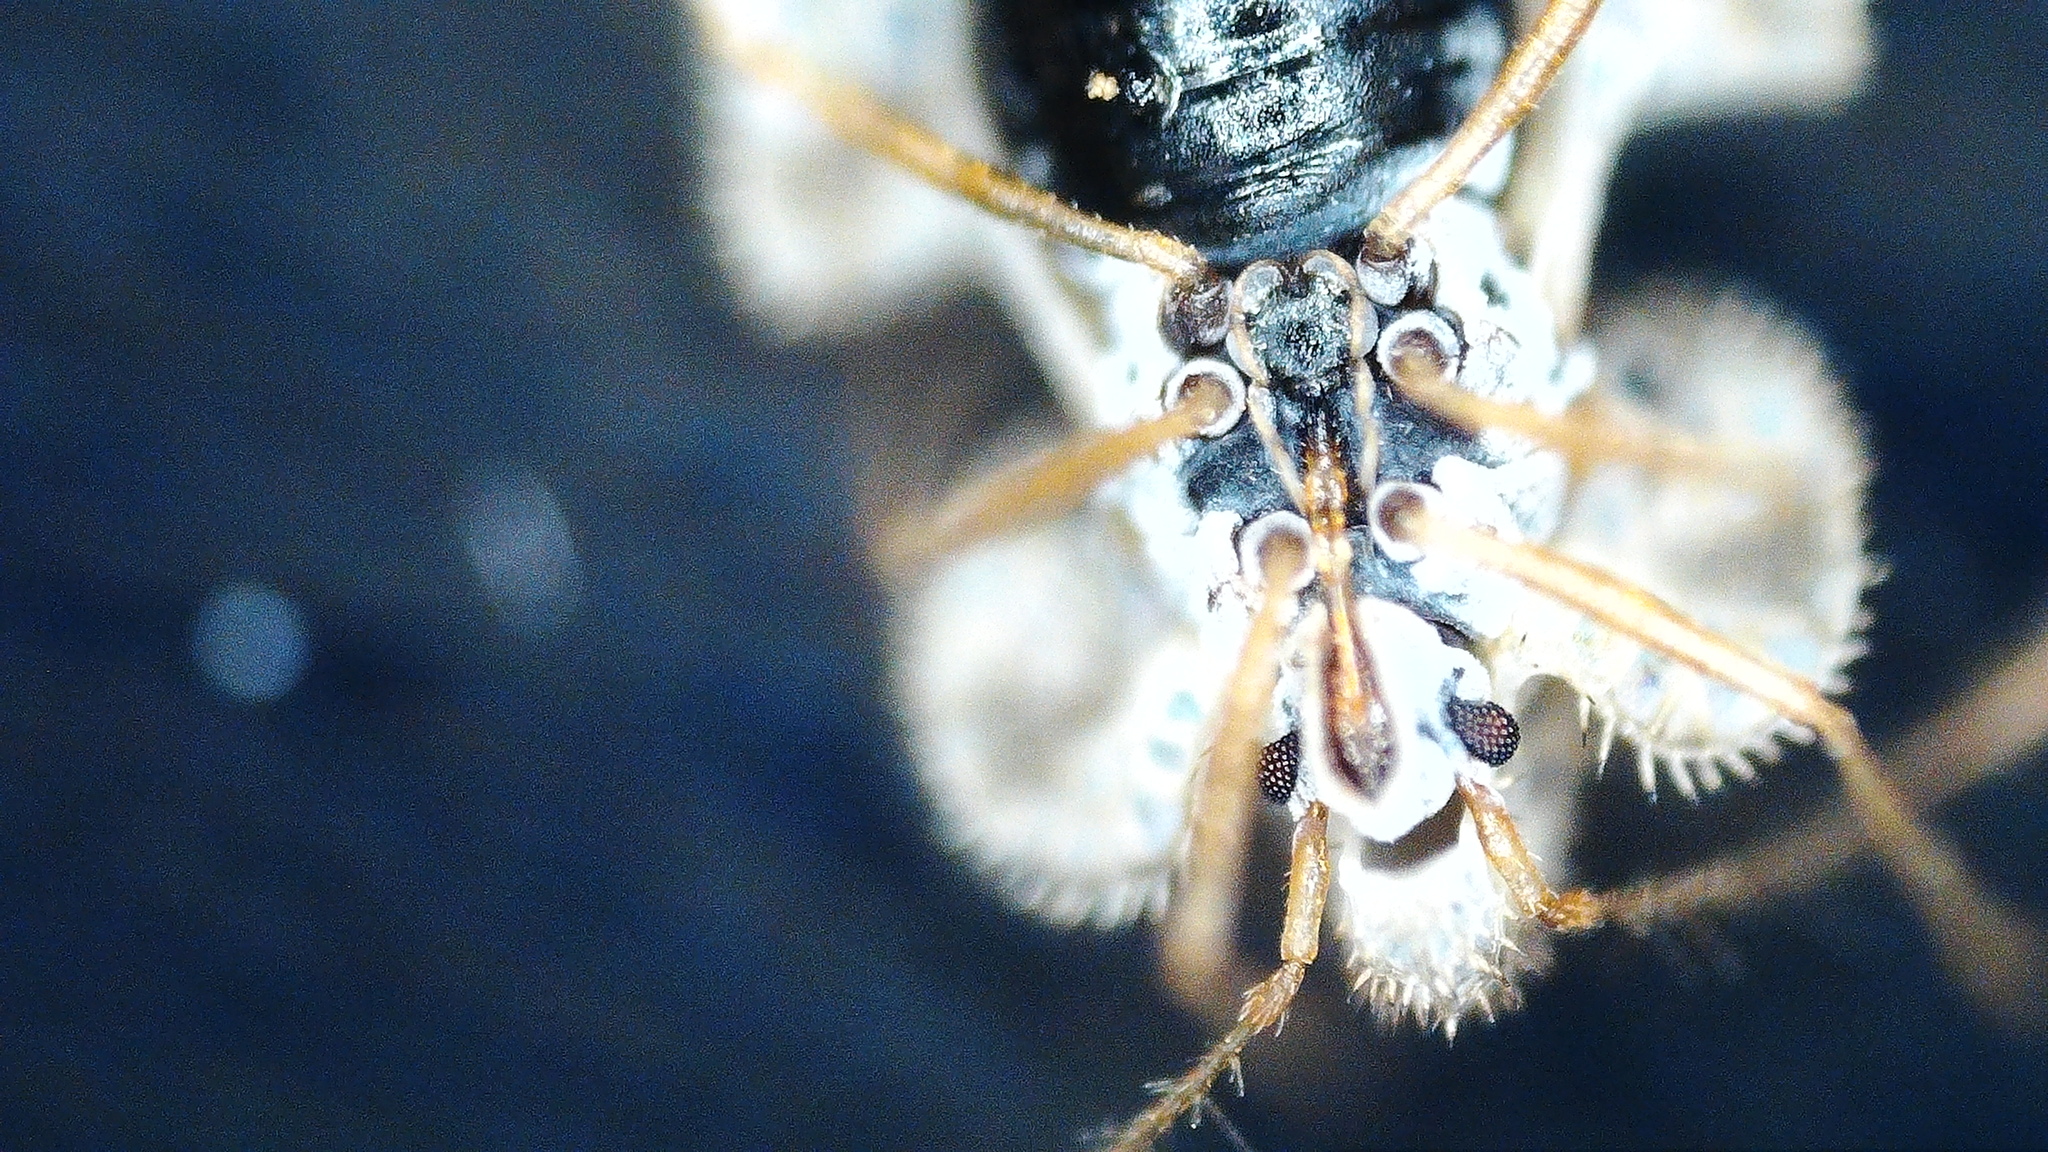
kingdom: Animalia
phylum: Arthropoda
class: Insecta
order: Hemiptera
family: Tingidae
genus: Corythucha
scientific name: Corythucha arcuata
